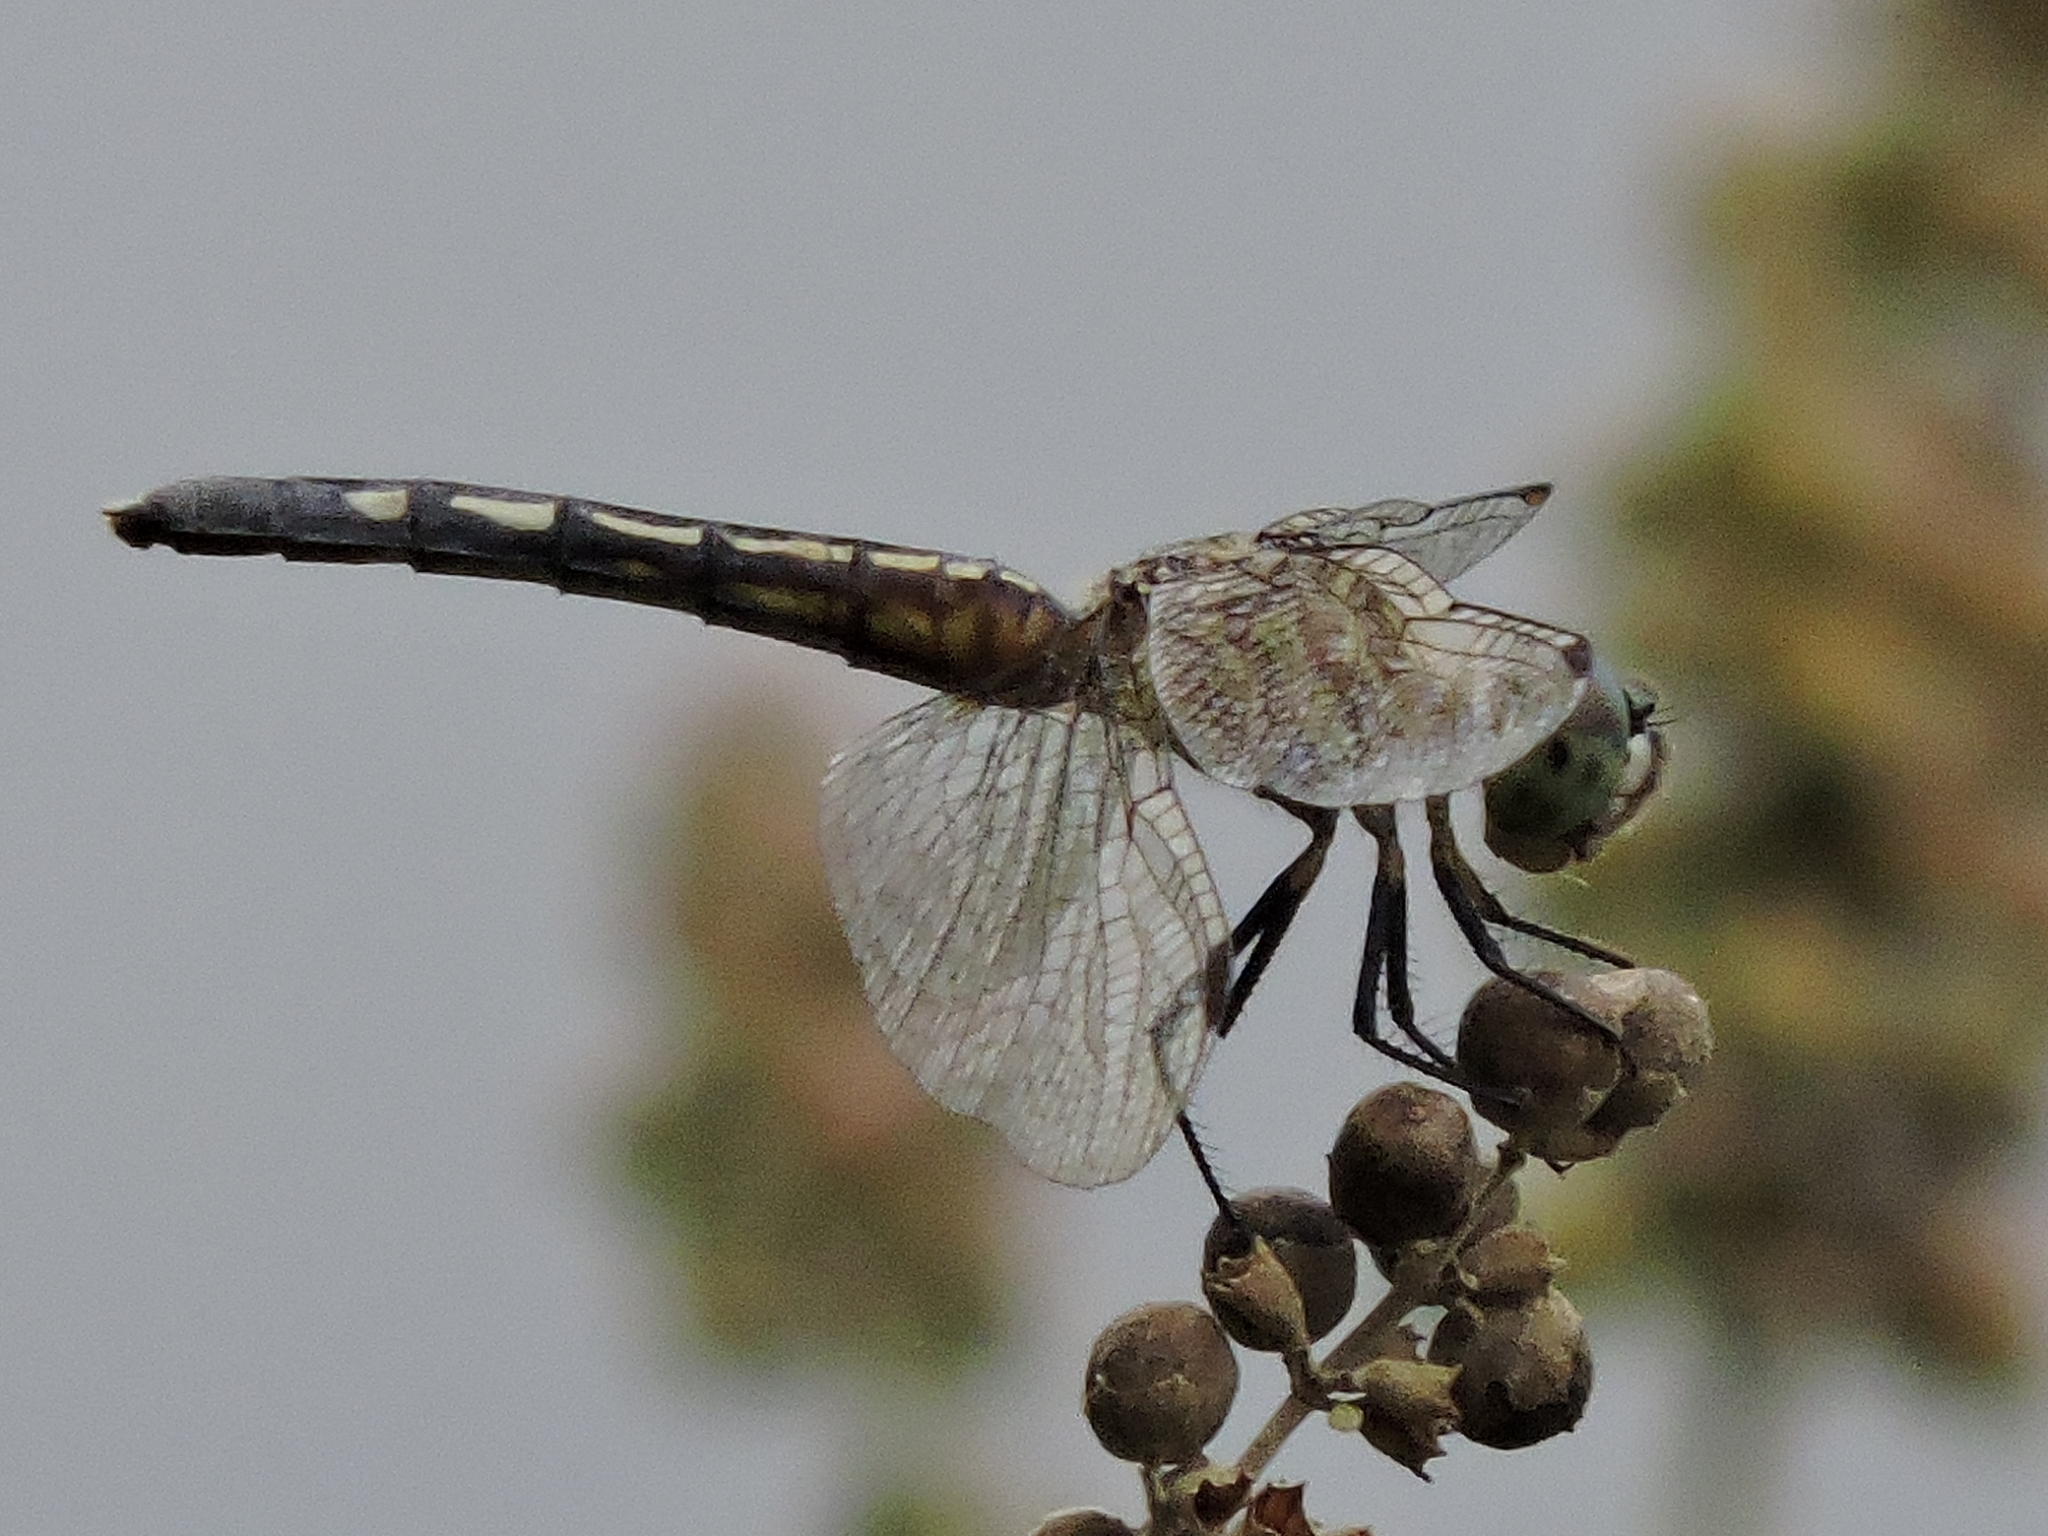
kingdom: Animalia
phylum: Arthropoda
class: Insecta
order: Odonata
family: Libellulidae
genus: Pachydiplax
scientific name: Pachydiplax longipennis
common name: Blue dasher
